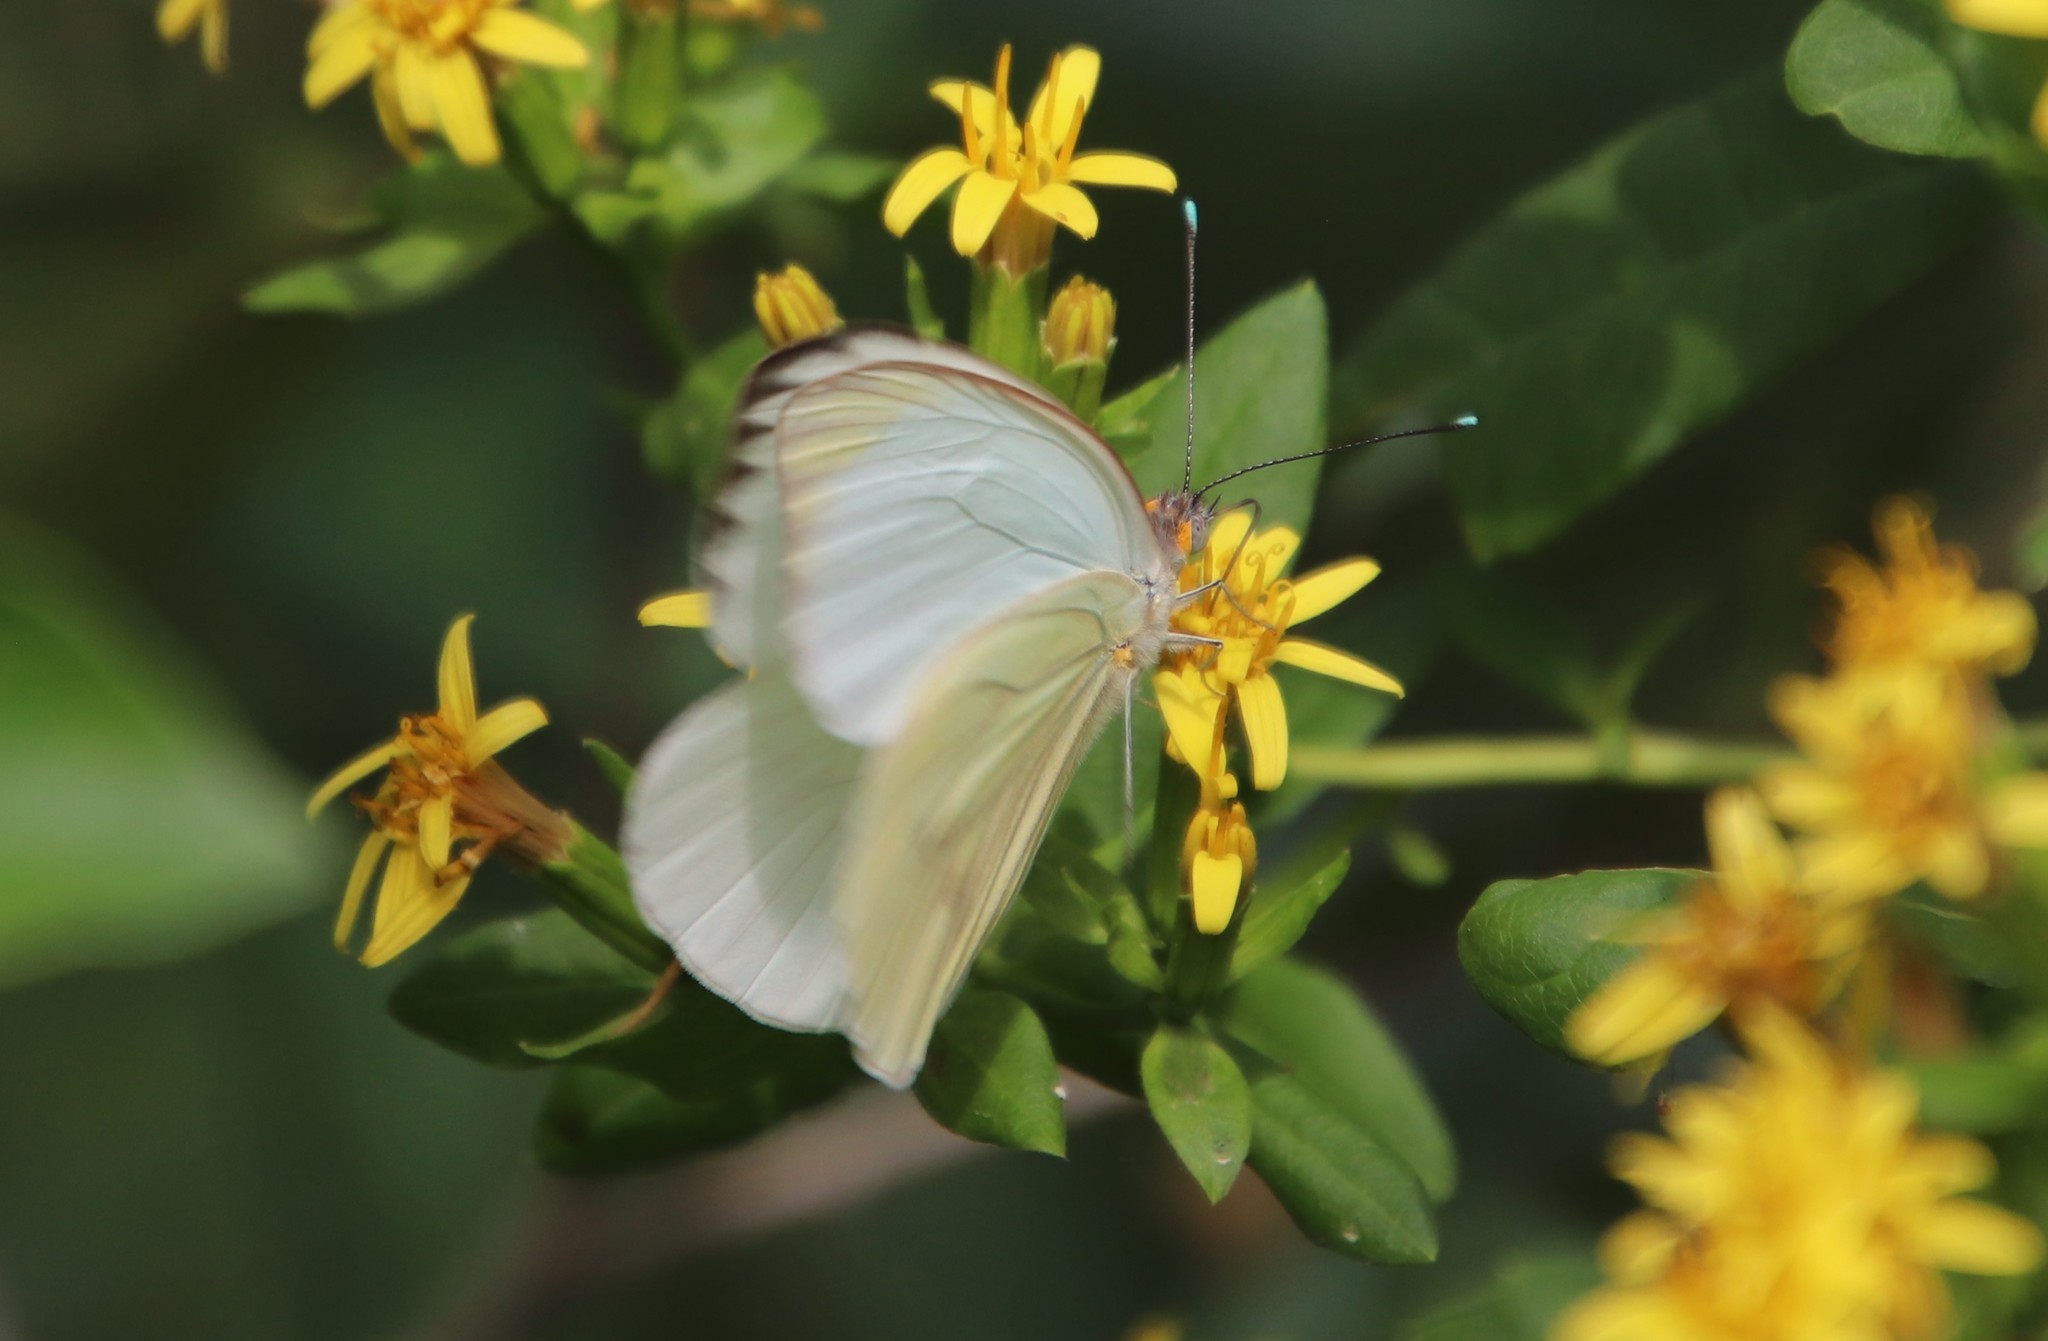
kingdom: Animalia
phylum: Arthropoda
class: Insecta
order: Lepidoptera
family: Pieridae
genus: Ascia
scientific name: Ascia monuste
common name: Great southern white
